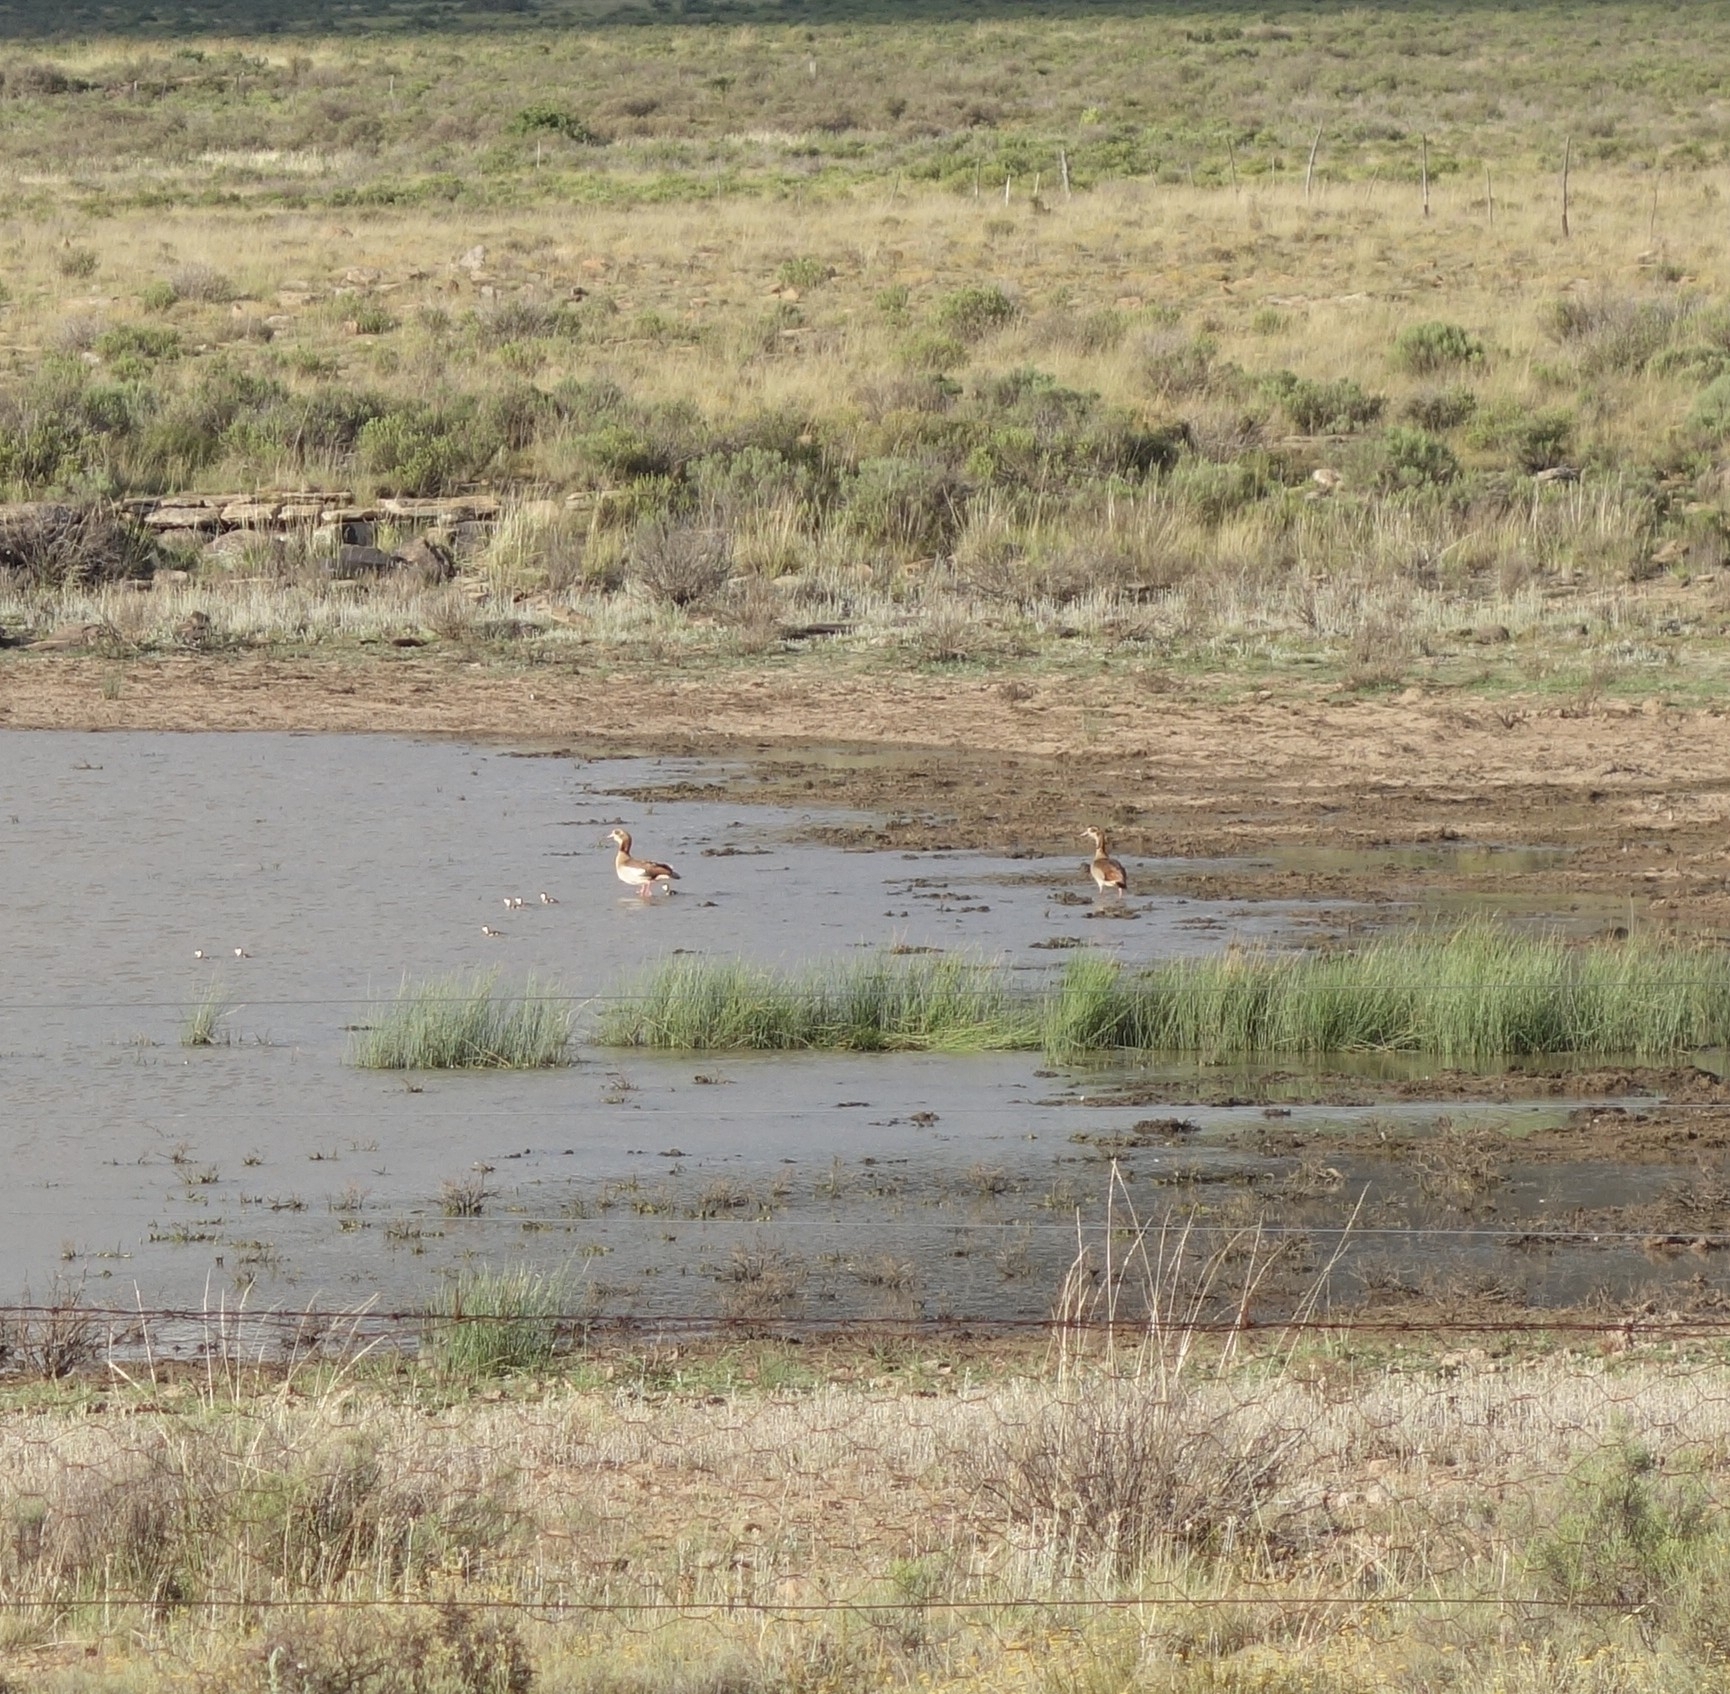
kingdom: Animalia
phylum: Chordata
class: Aves
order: Anseriformes
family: Anatidae
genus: Alopochen
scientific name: Alopochen aegyptiaca
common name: Egyptian goose
